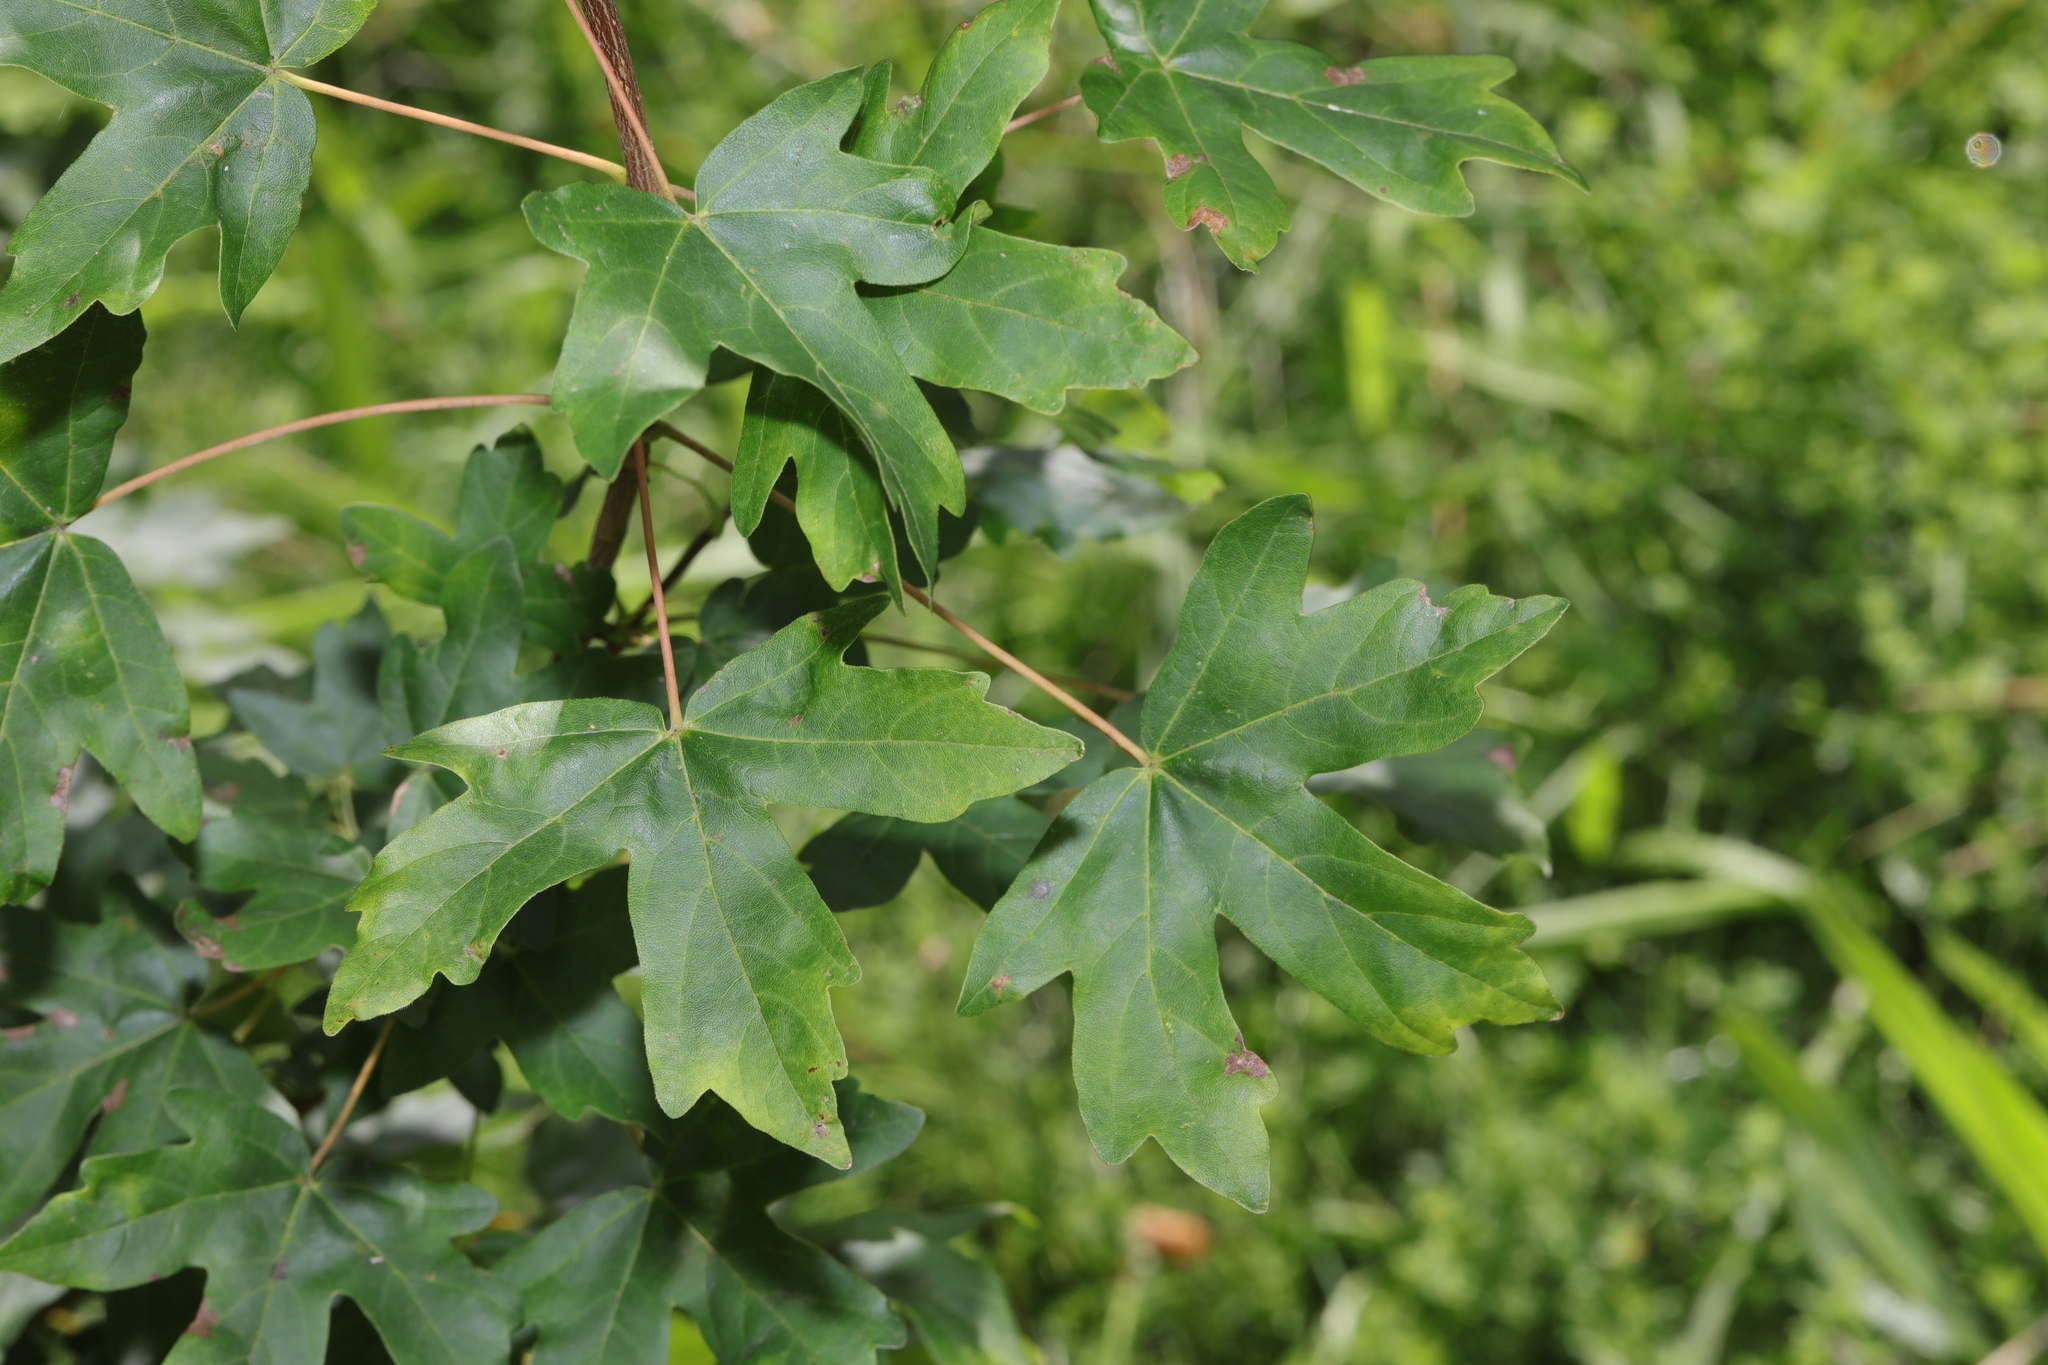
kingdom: Plantae
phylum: Tracheophyta
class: Magnoliopsida
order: Sapindales
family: Sapindaceae
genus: Acer
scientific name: Acer campestre
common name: Field maple
